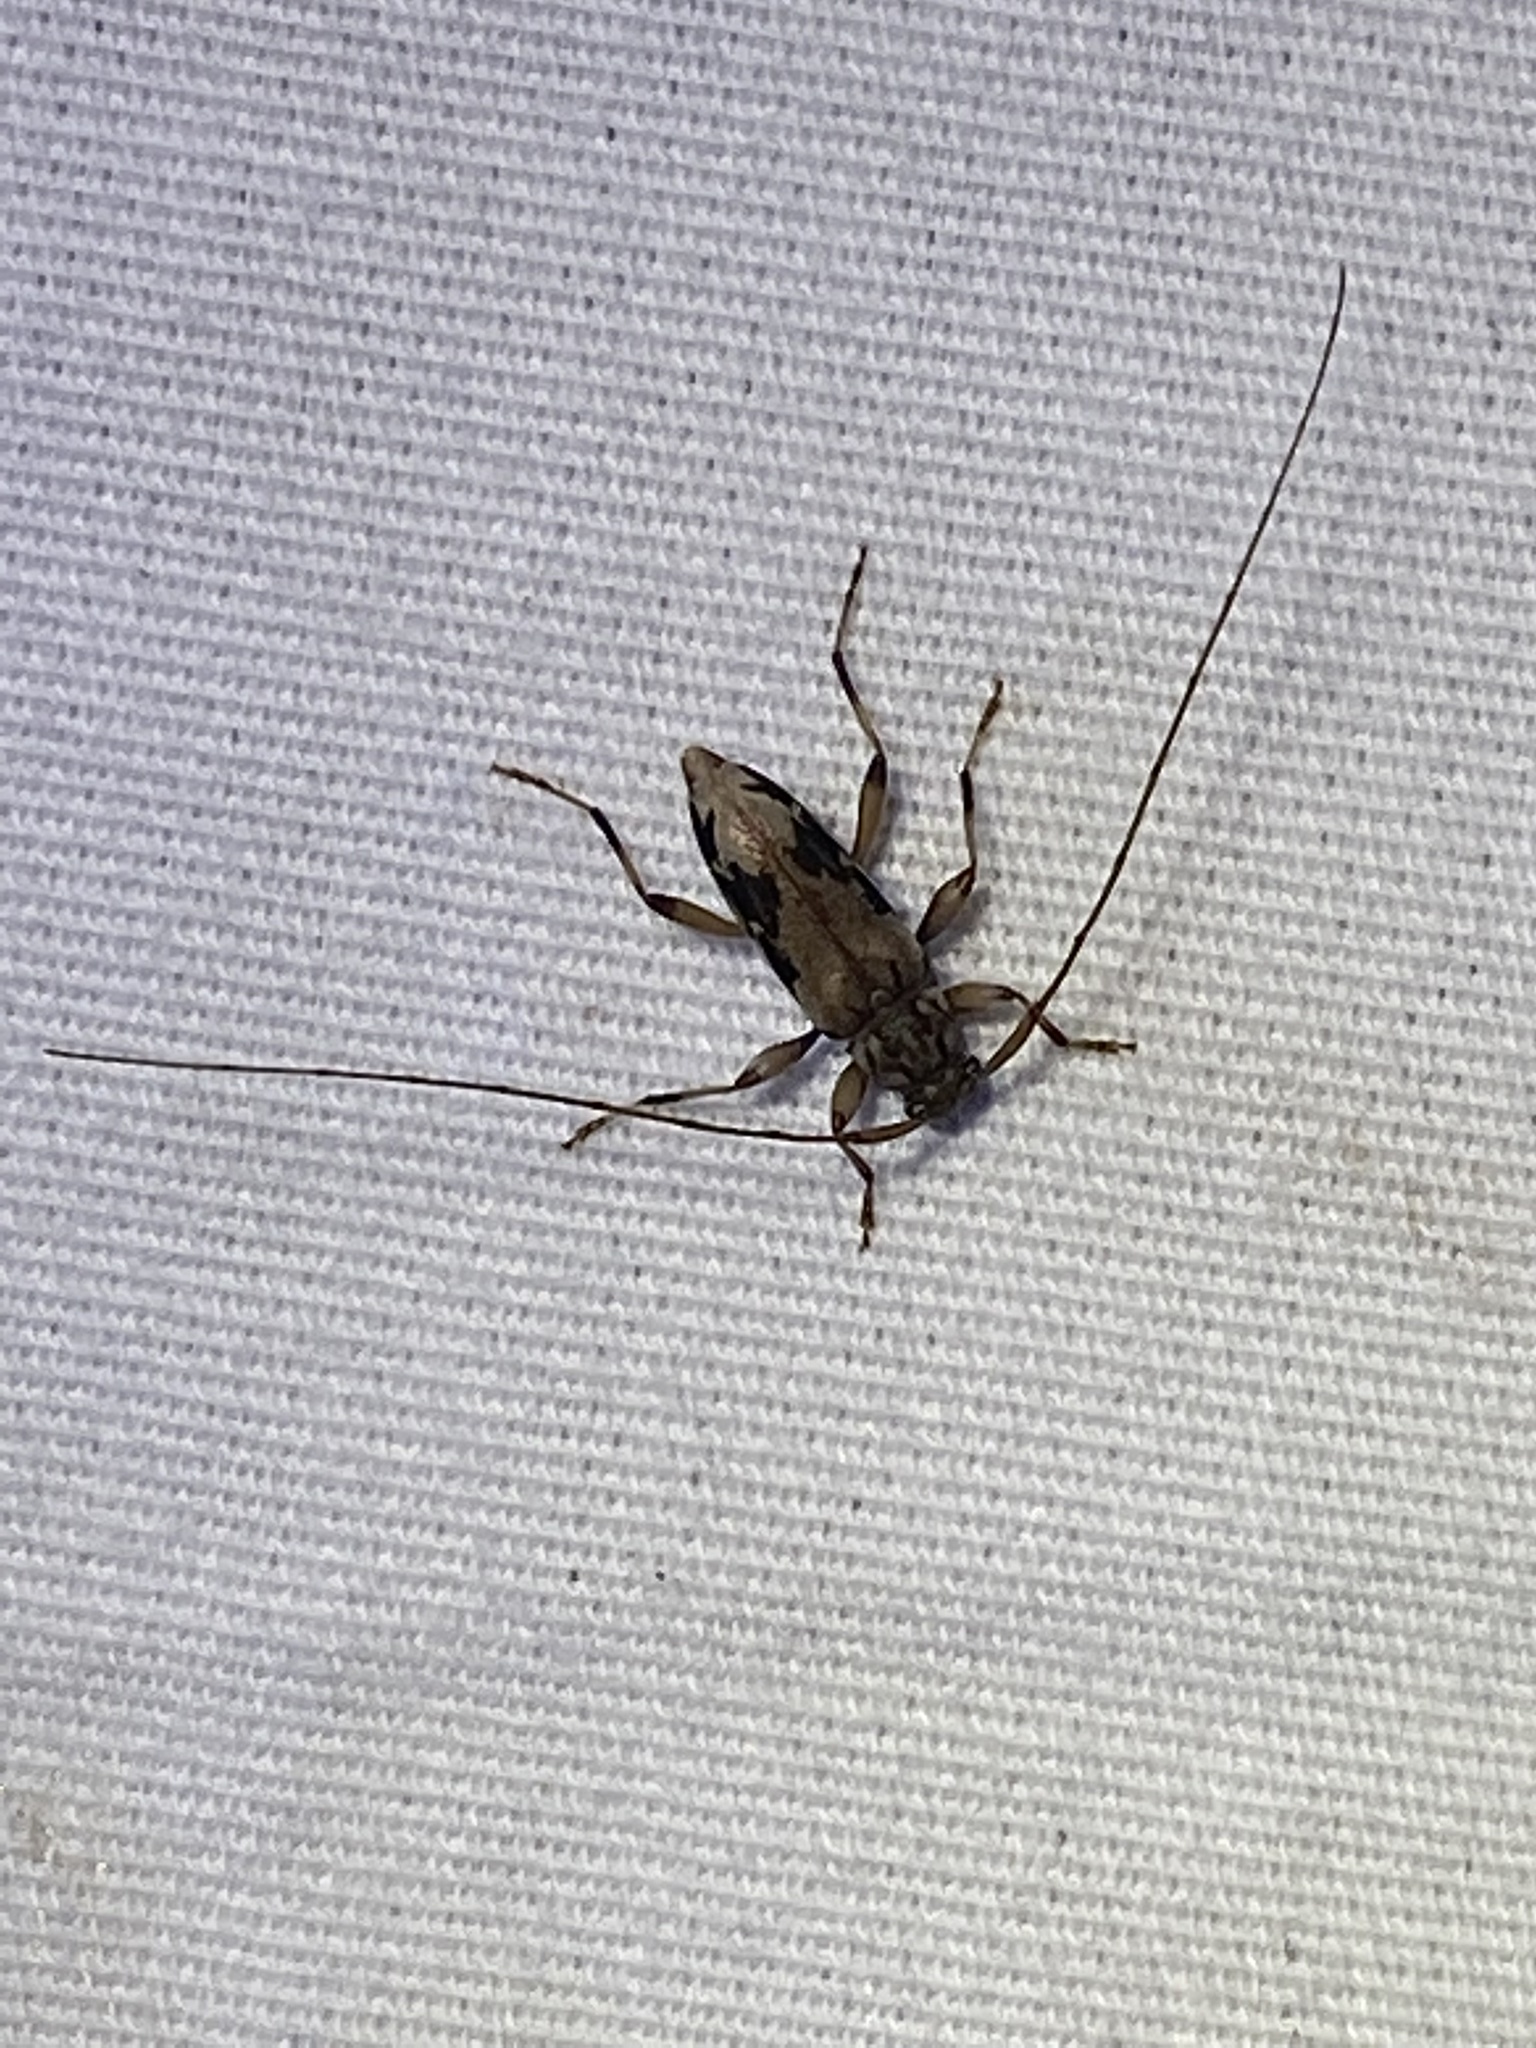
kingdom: Animalia
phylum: Arthropoda
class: Insecta
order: Coleoptera
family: Cerambycidae
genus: Lepturges
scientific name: Lepturges angulatus
